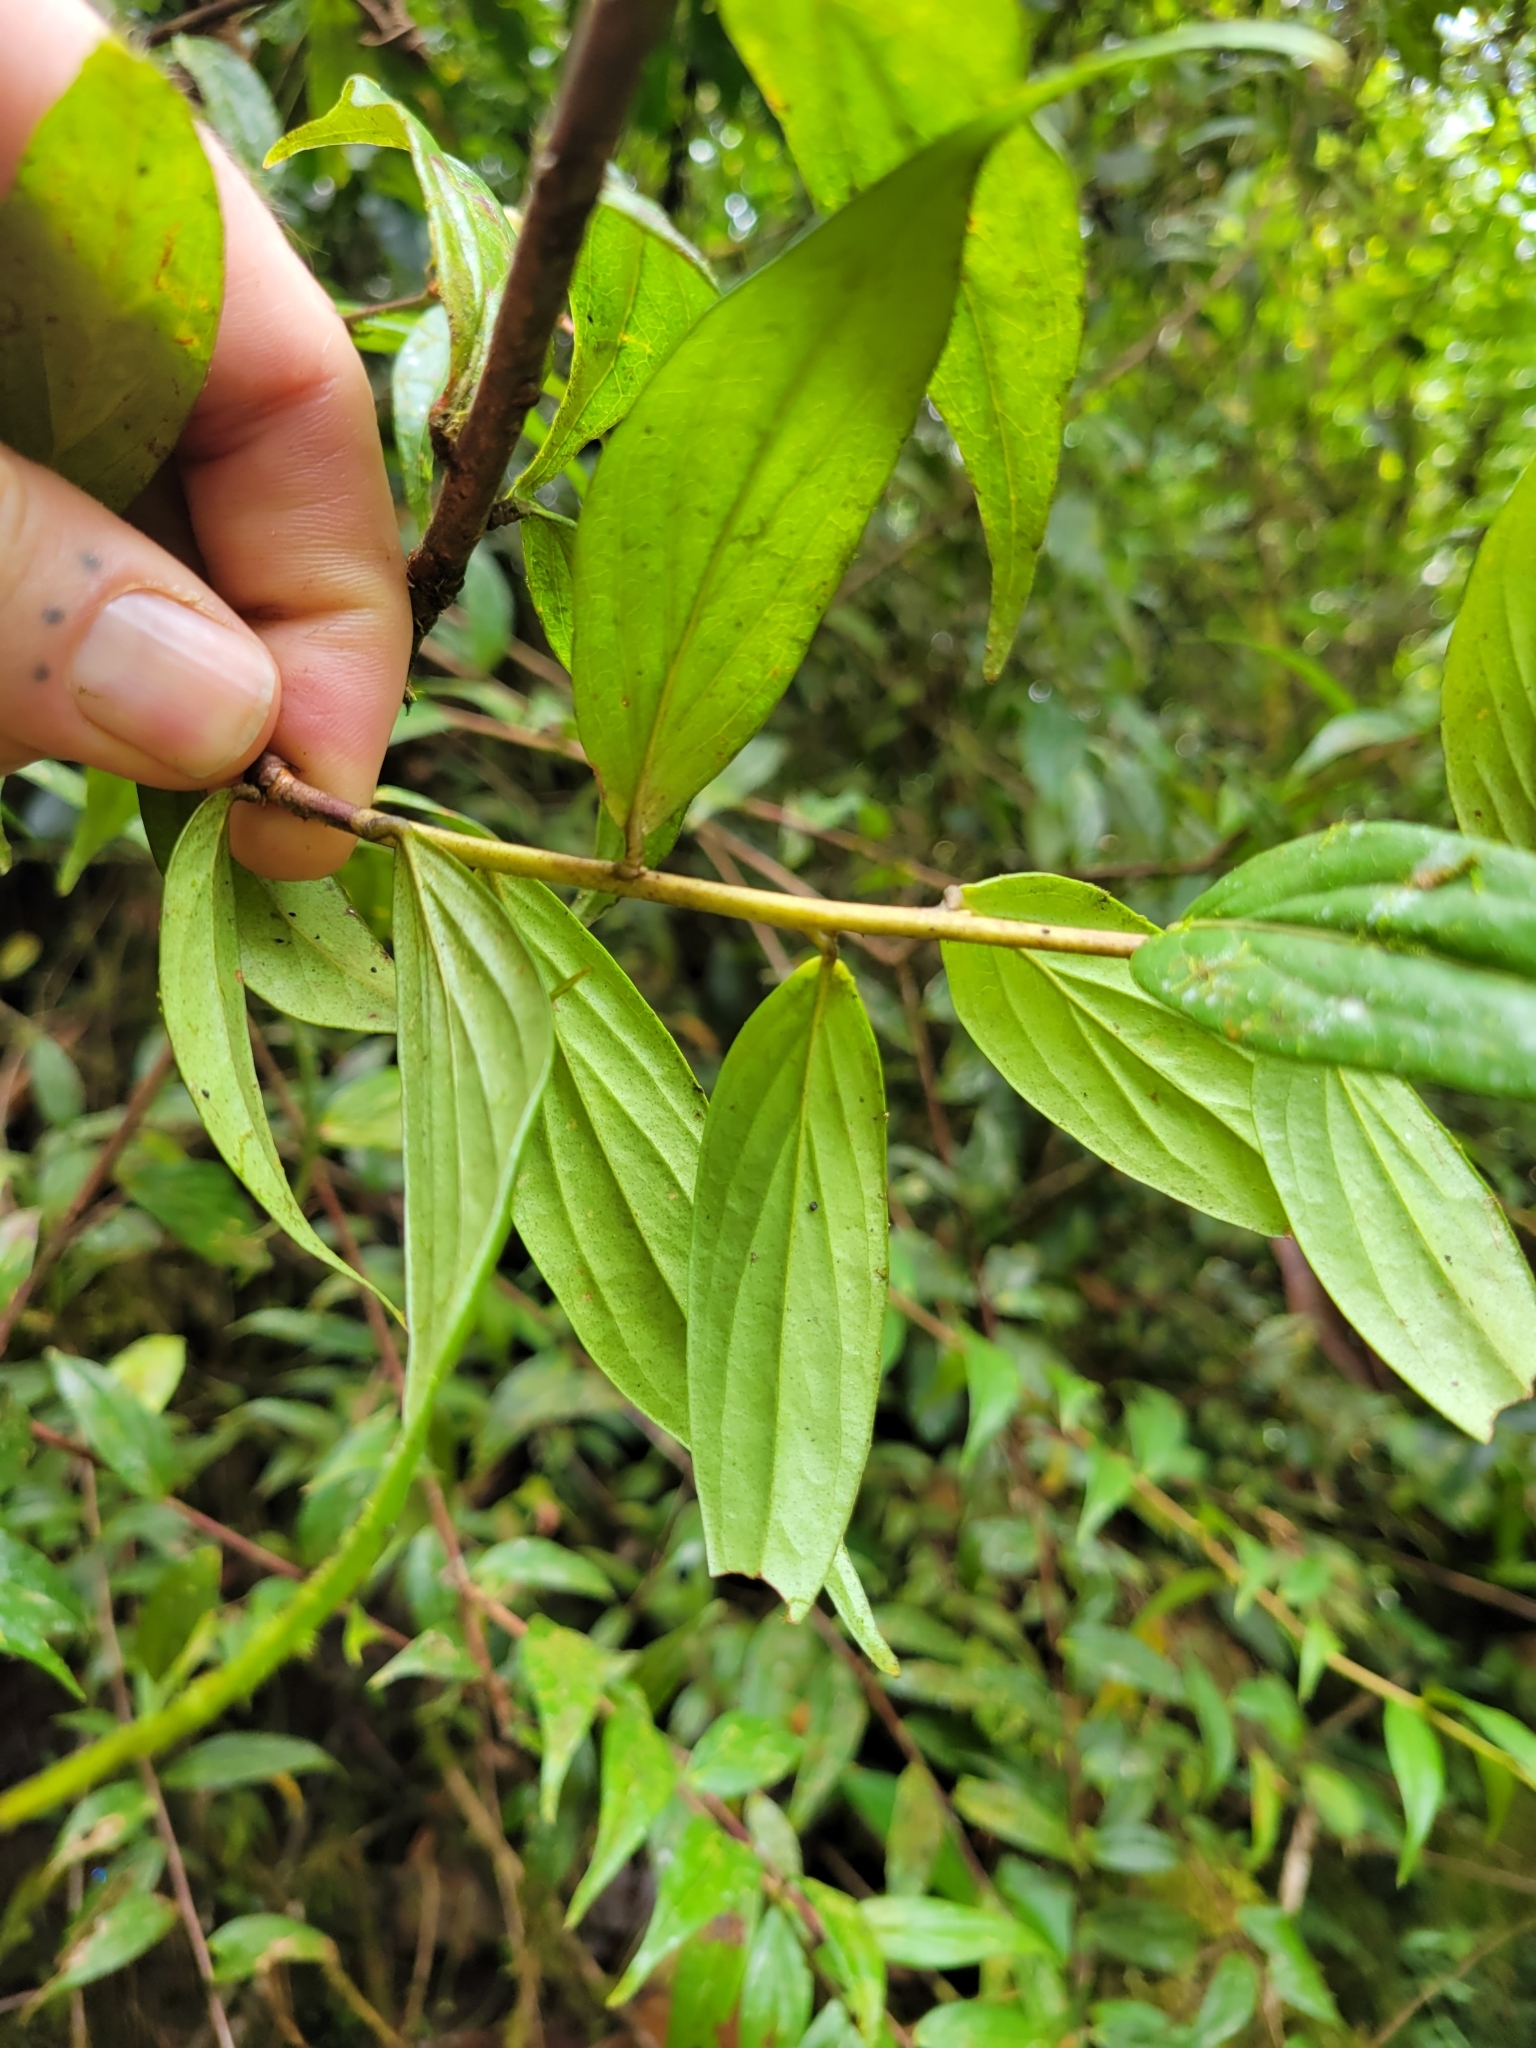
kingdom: Plantae
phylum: Tracheophyta
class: Magnoliopsida
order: Ericales
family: Ericaceae
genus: Cavendishia
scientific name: Cavendishia endresii
